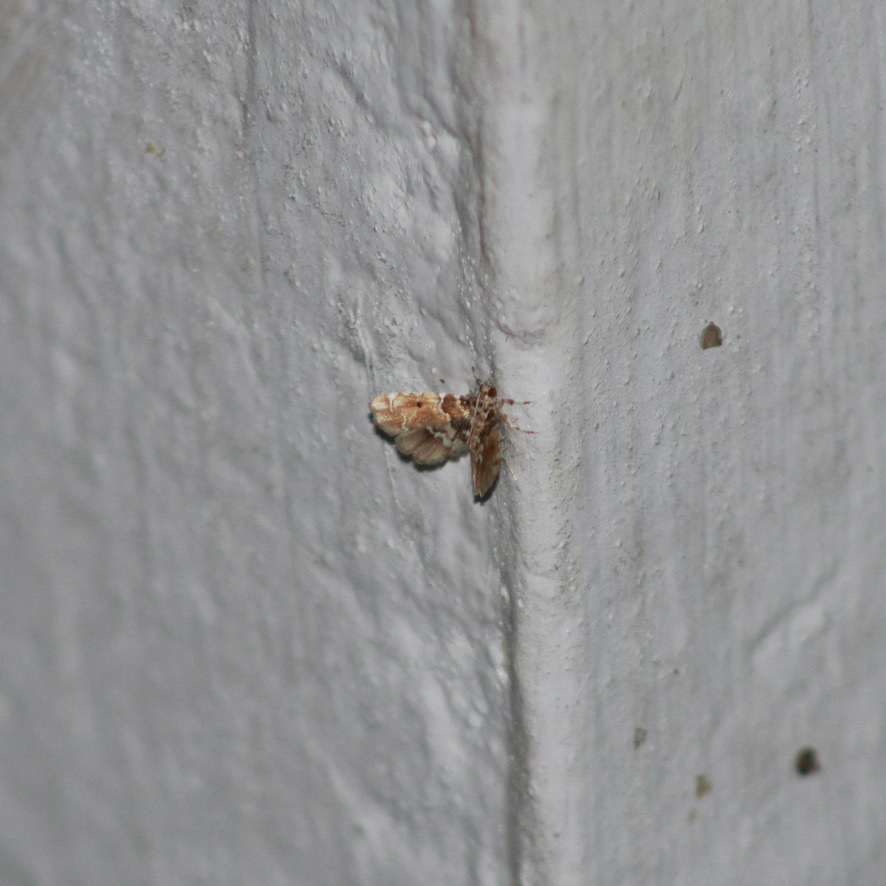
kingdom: Animalia
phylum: Arthropoda
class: Insecta
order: Lepidoptera
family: Crambidae
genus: Sufetula
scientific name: Sufetula diminutalis
